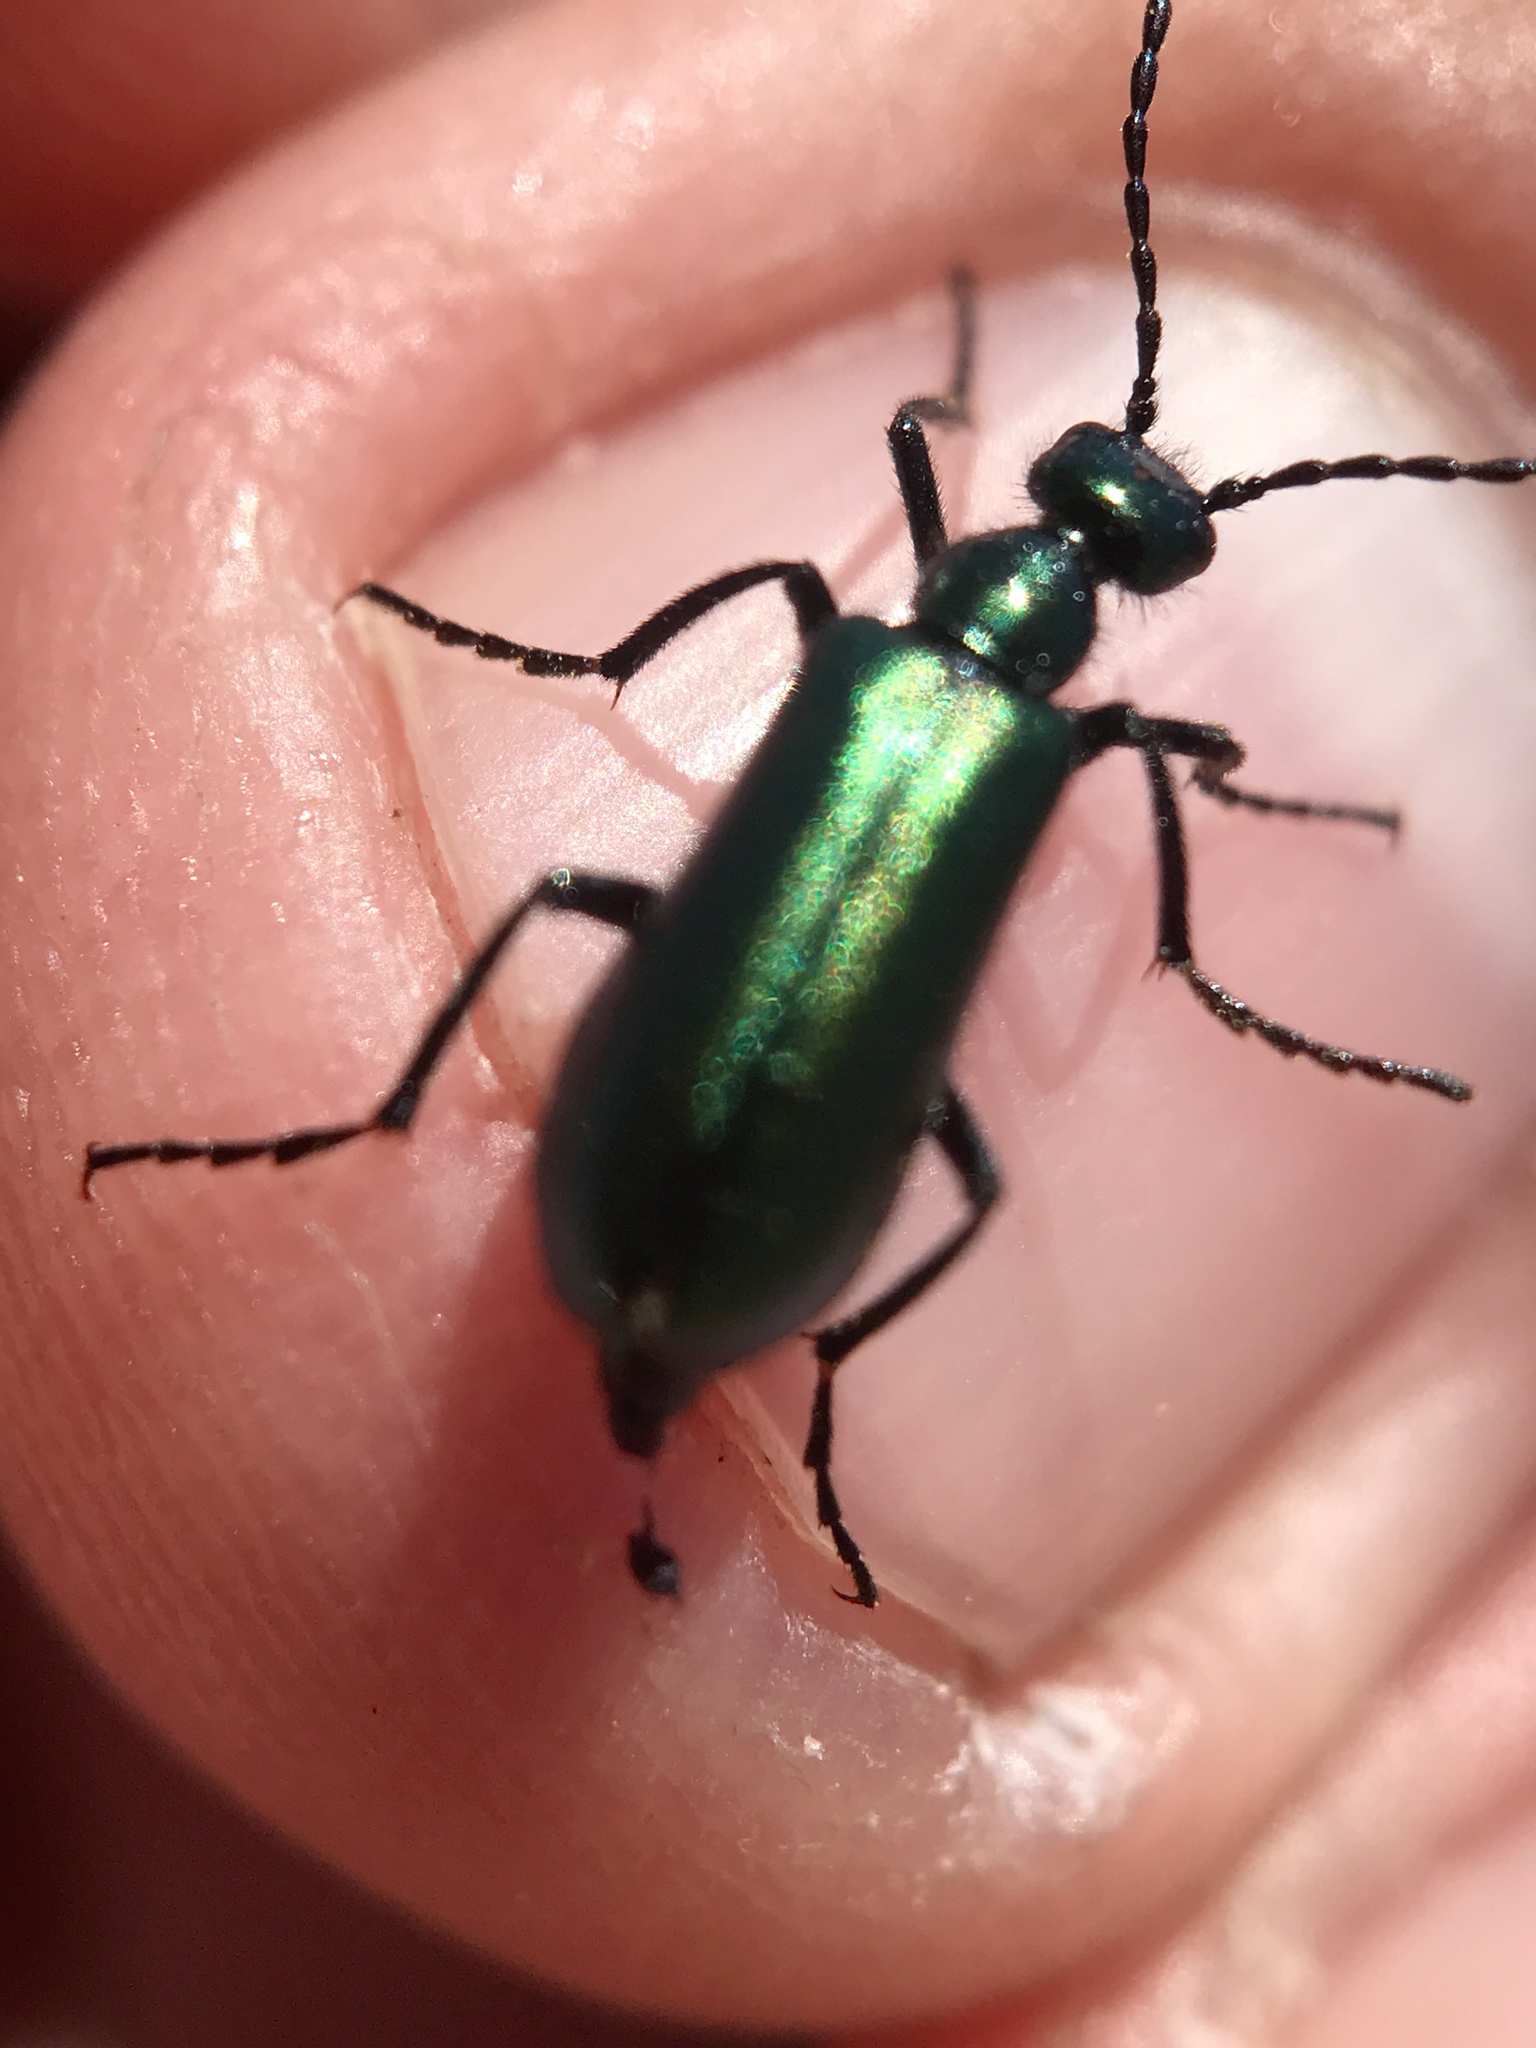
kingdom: Animalia
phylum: Arthropoda
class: Insecta
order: Coleoptera
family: Meloidae
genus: Lytta
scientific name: Lytta stygica
